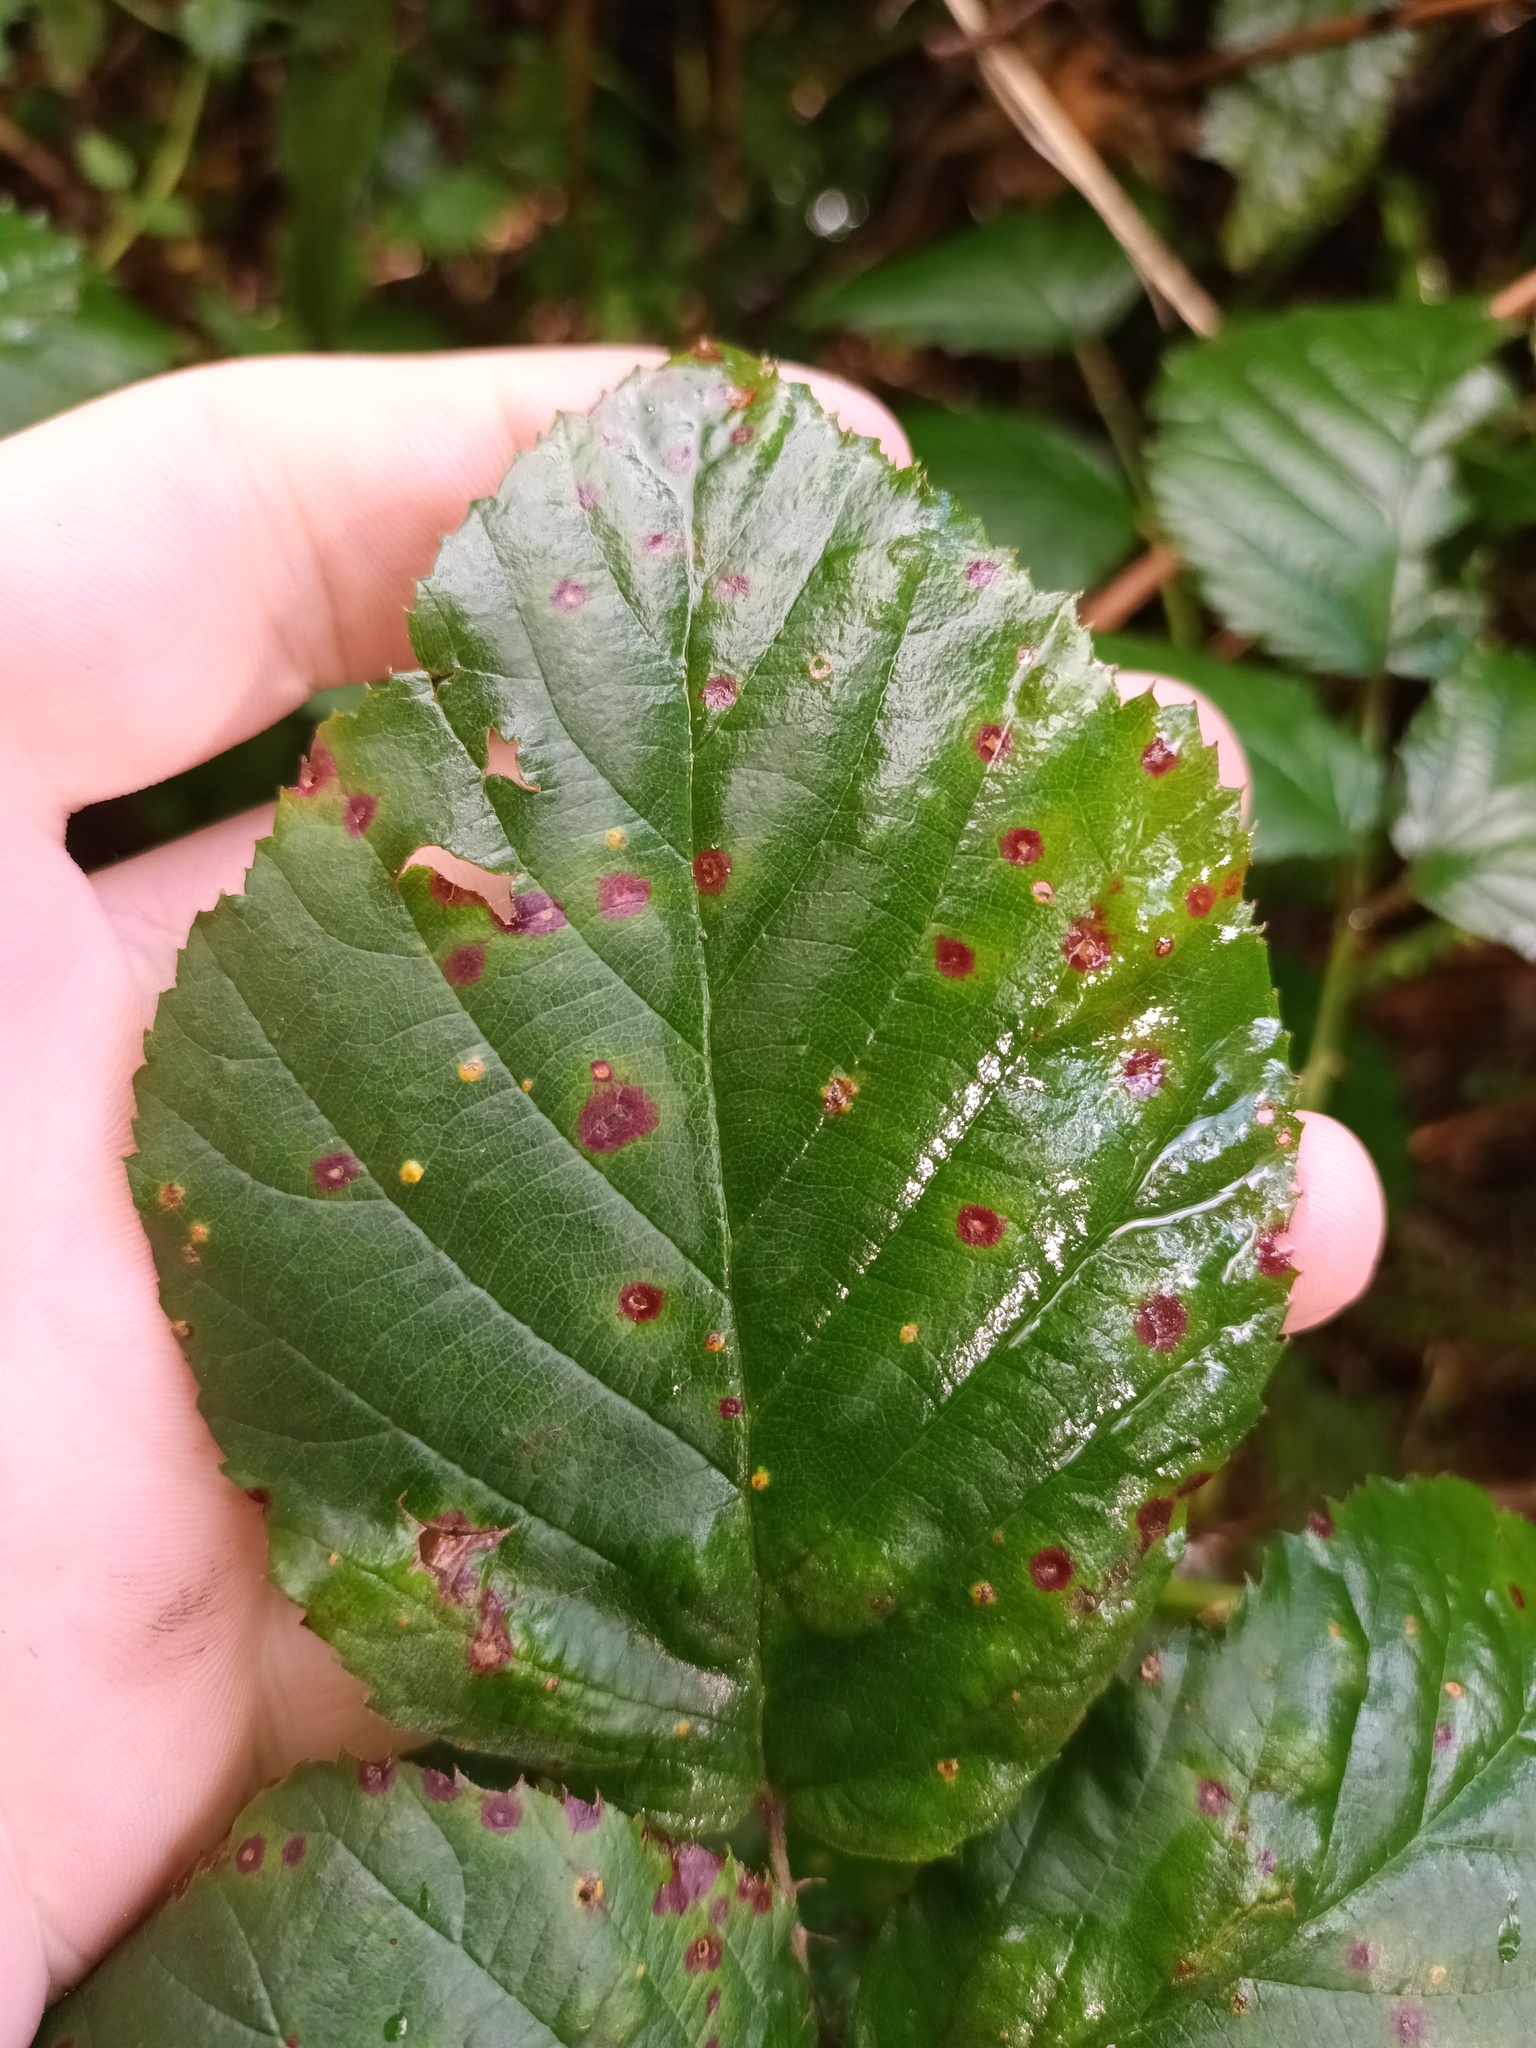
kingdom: Fungi
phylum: Basidiomycota
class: Pucciniomycetes
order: Pucciniales
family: Phragmidiaceae
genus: Phragmidium
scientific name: Phragmidium violaceum
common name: Violet bramble rust
